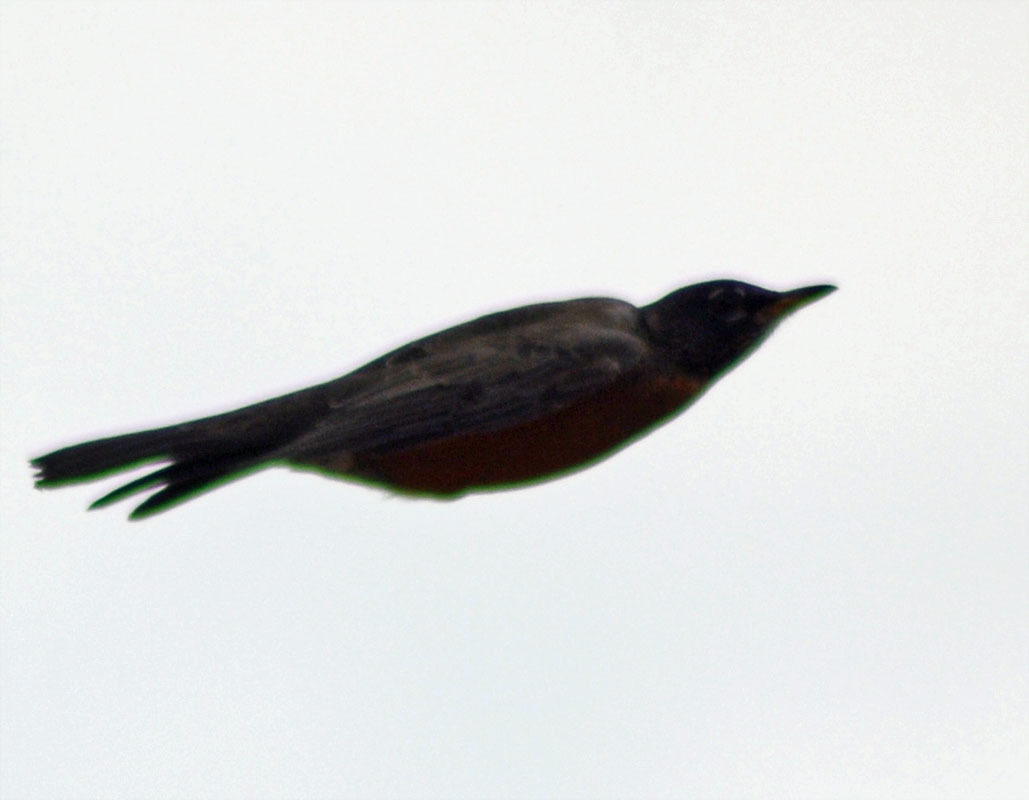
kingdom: Animalia
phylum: Chordata
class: Aves
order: Passeriformes
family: Turdidae
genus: Turdus
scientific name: Turdus migratorius
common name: American robin
